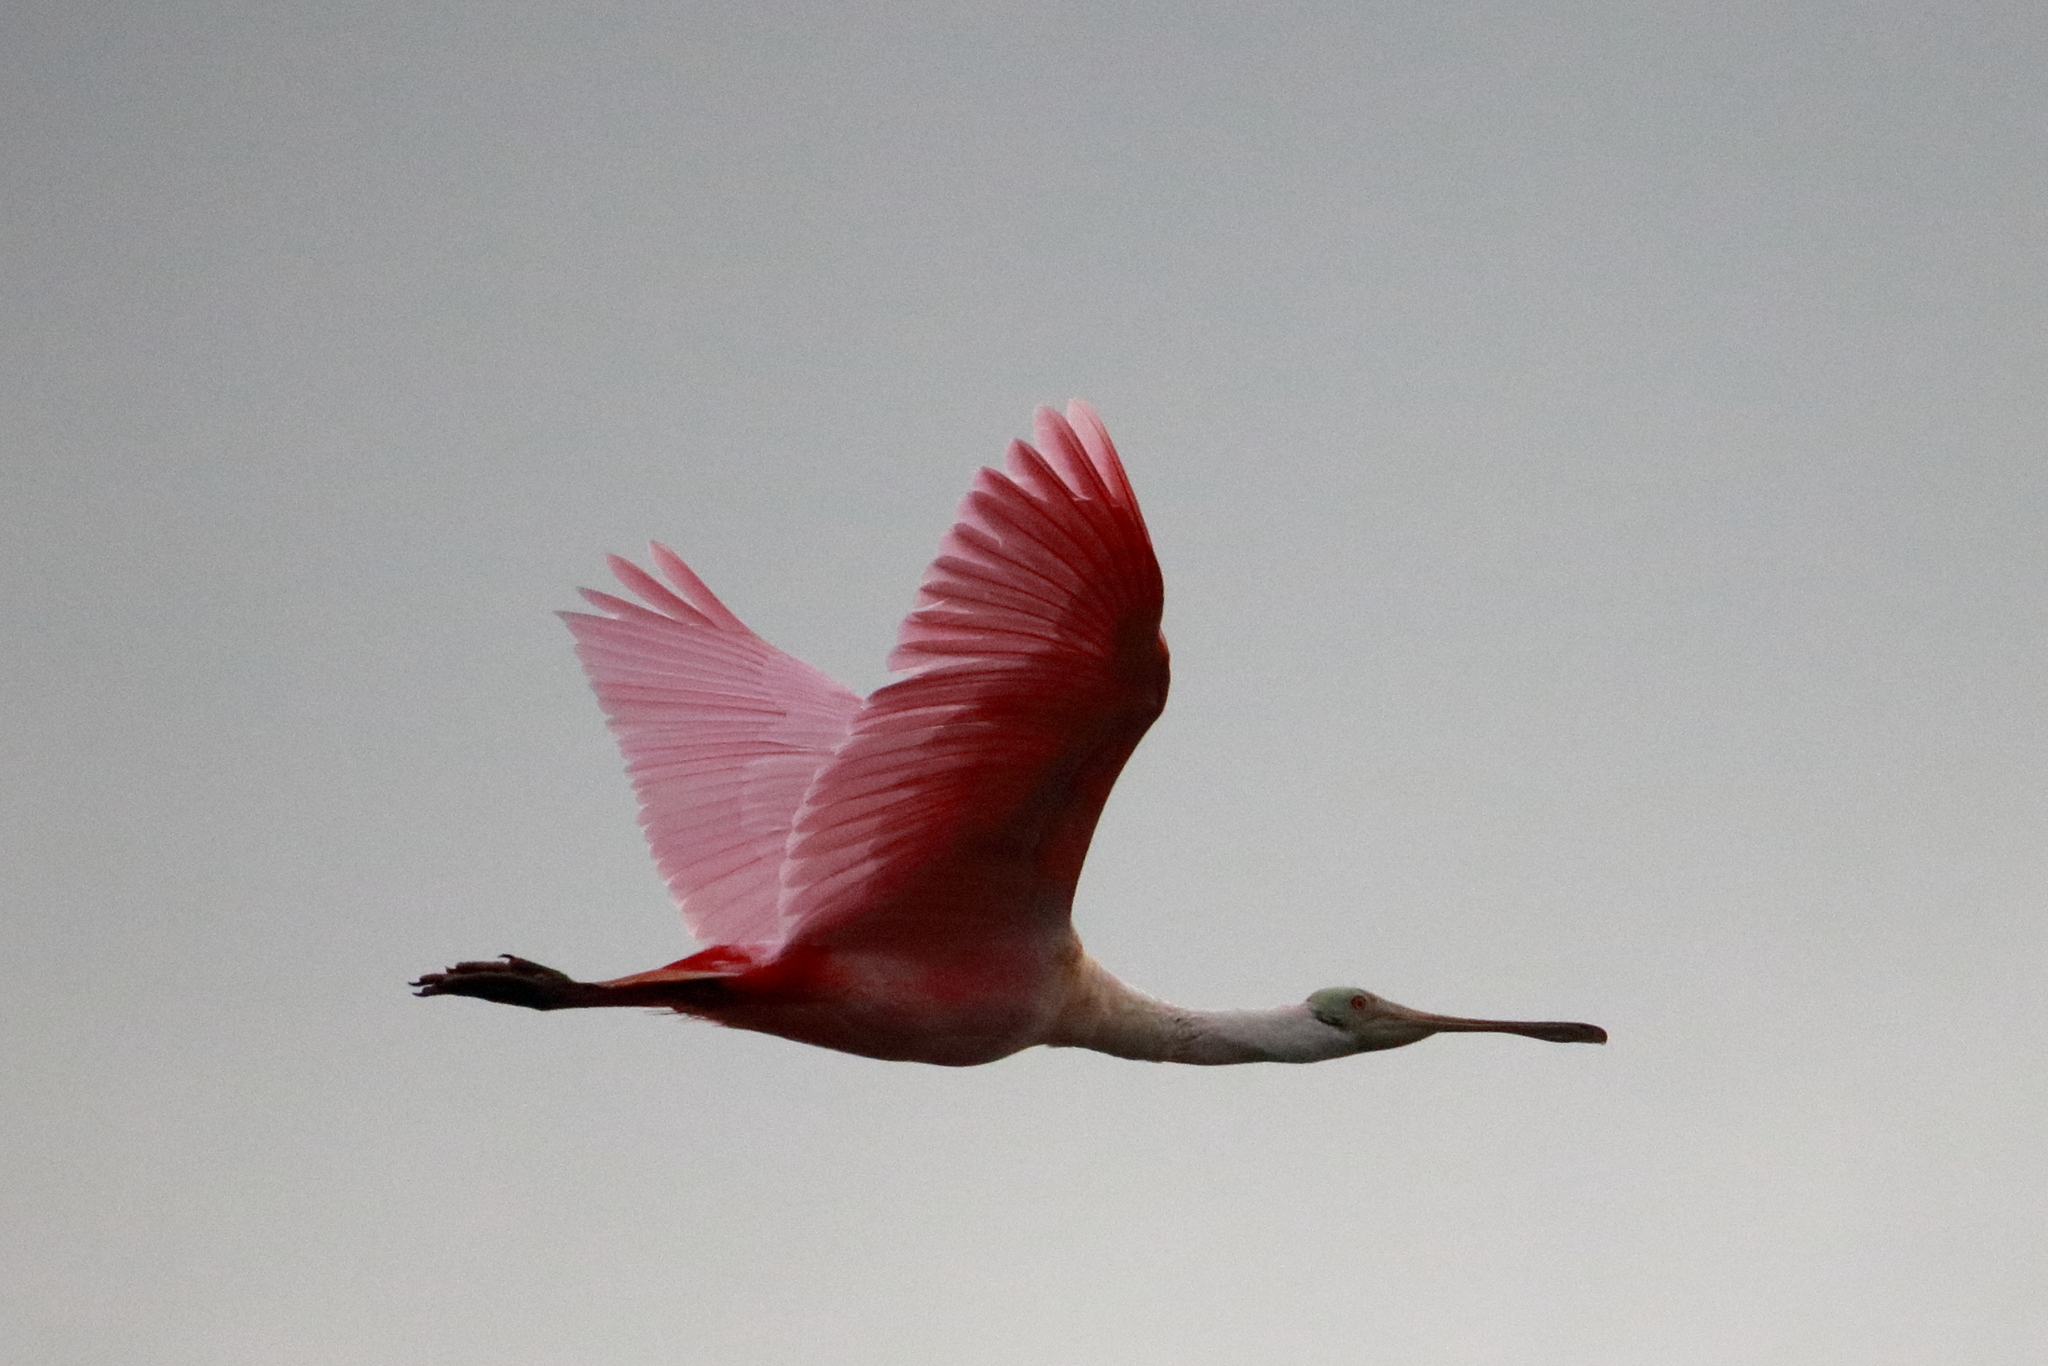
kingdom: Animalia
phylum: Chordata
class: Aves
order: Pelecaniformes
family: Threskiornithidae
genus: Platalea
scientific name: Platalea ajaja
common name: Roseate spoonbill
